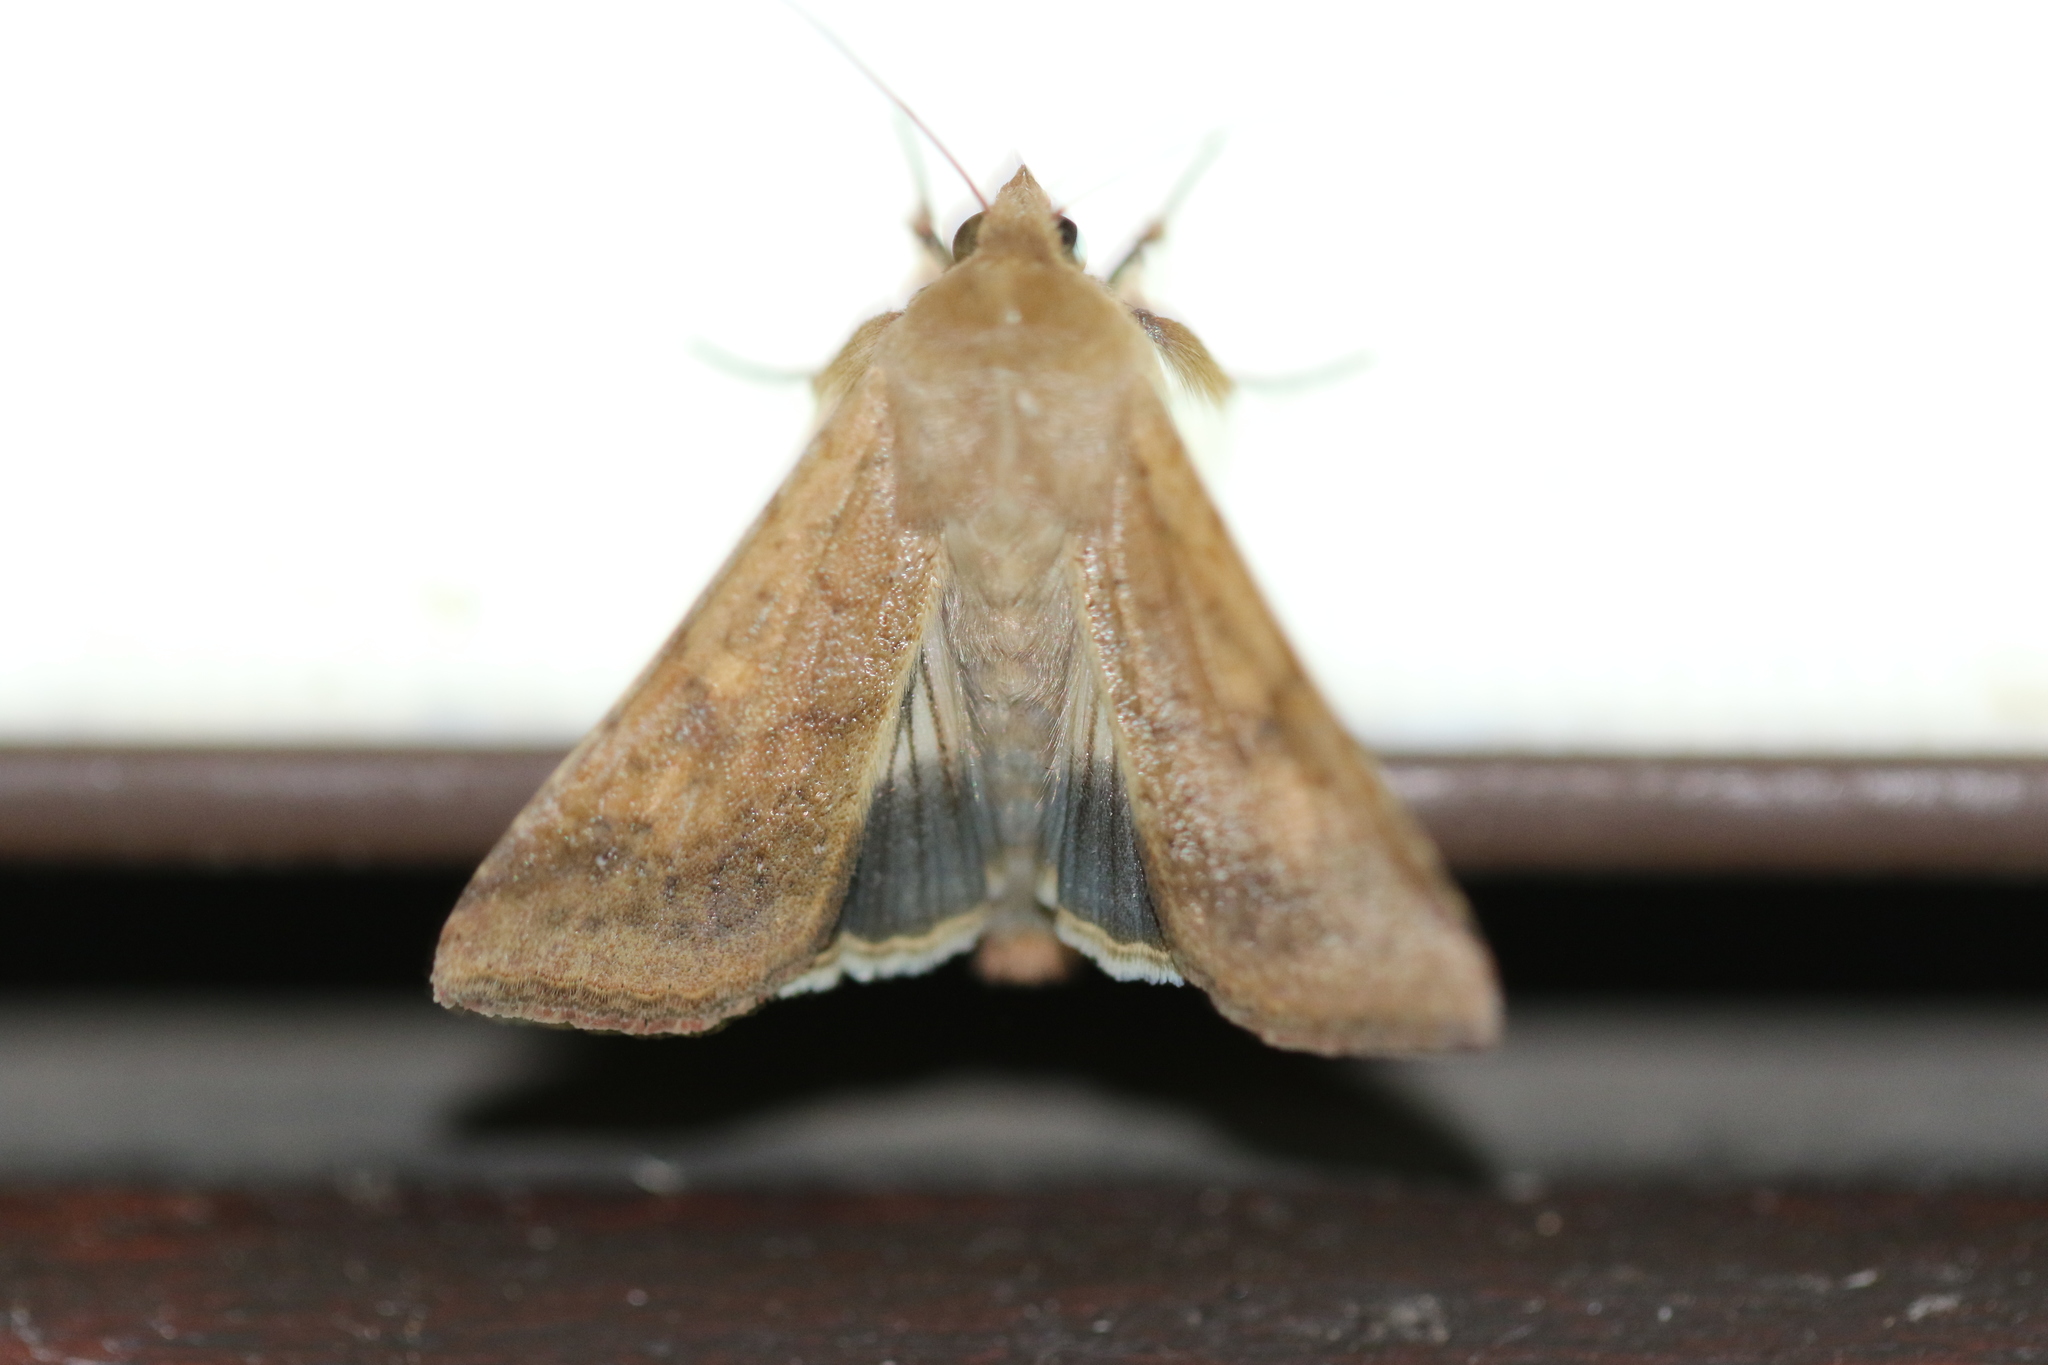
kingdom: Animalia
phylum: Arthropoda
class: Insecta
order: Lepidoptera
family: Noctuidae
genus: Helicoverpa
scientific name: Helicoverpa armigera
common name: Cotton bollworm
